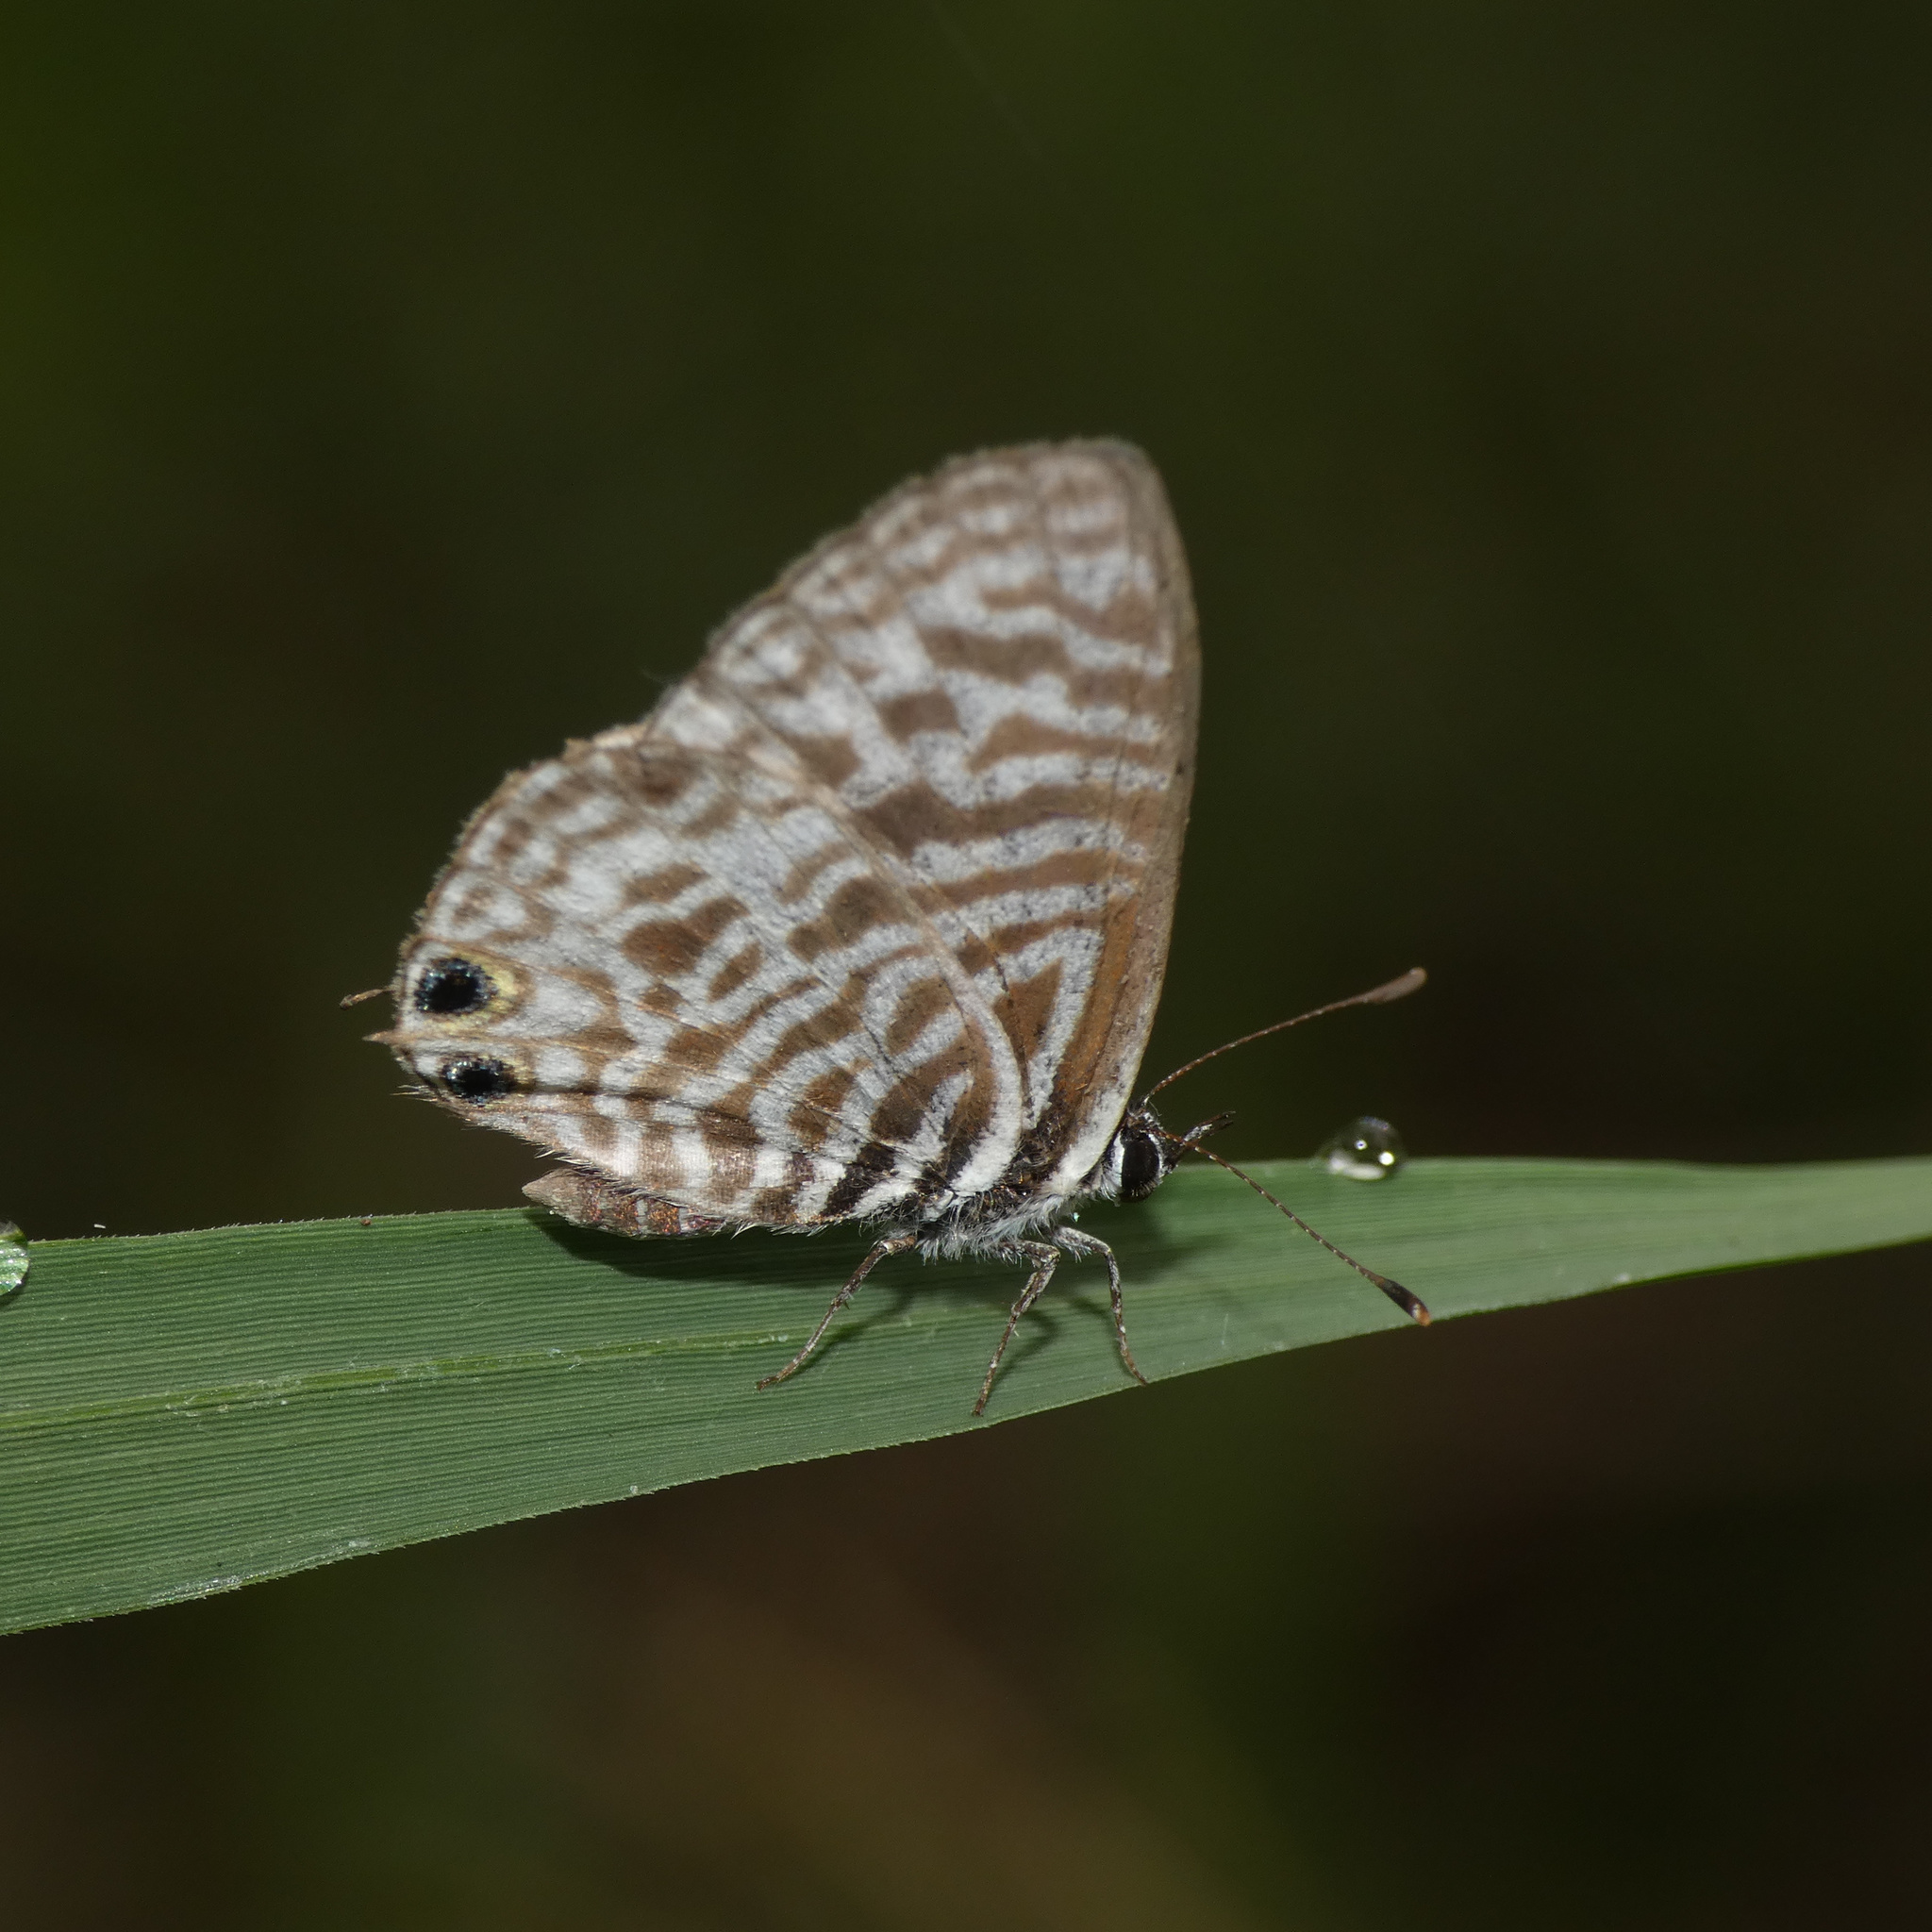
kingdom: Animalia
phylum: Arthropoda
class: Insecta
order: Lepidoptera
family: Lycaenidae
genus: Leptotes
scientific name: Leptotes
